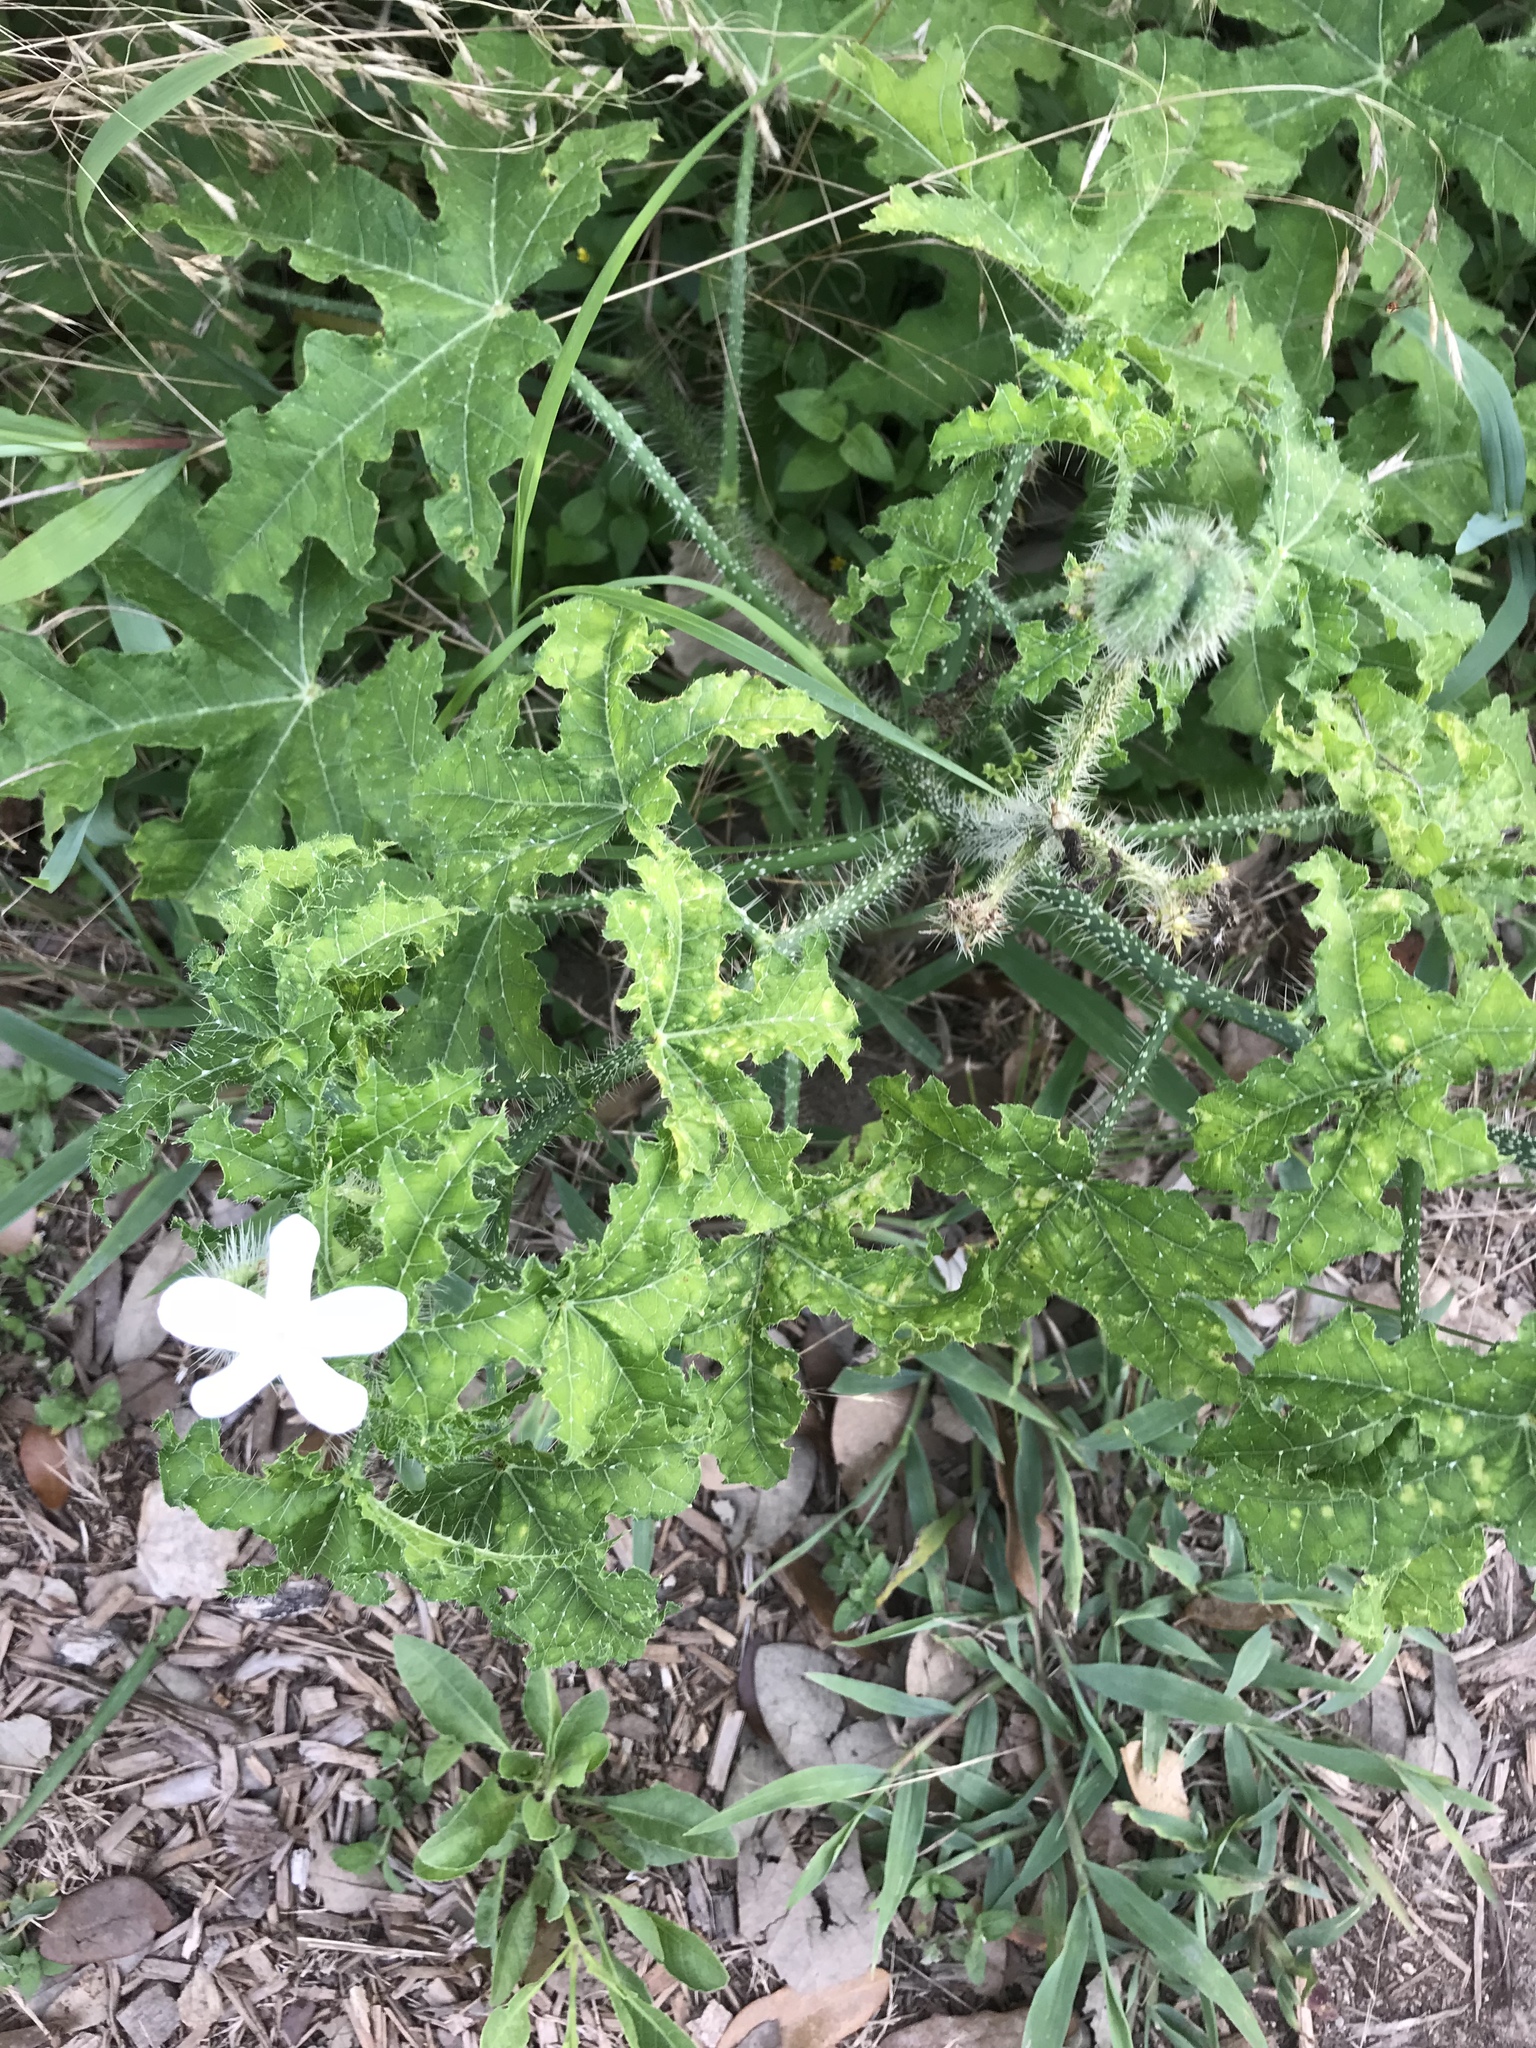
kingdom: Plantae
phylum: Tracheophyta
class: Magnoliopsida
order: Malpighiales
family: Euphorbiaceae
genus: Cnidoscolus
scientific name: Cnidoscolus texanus
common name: Texas bull-nettle
